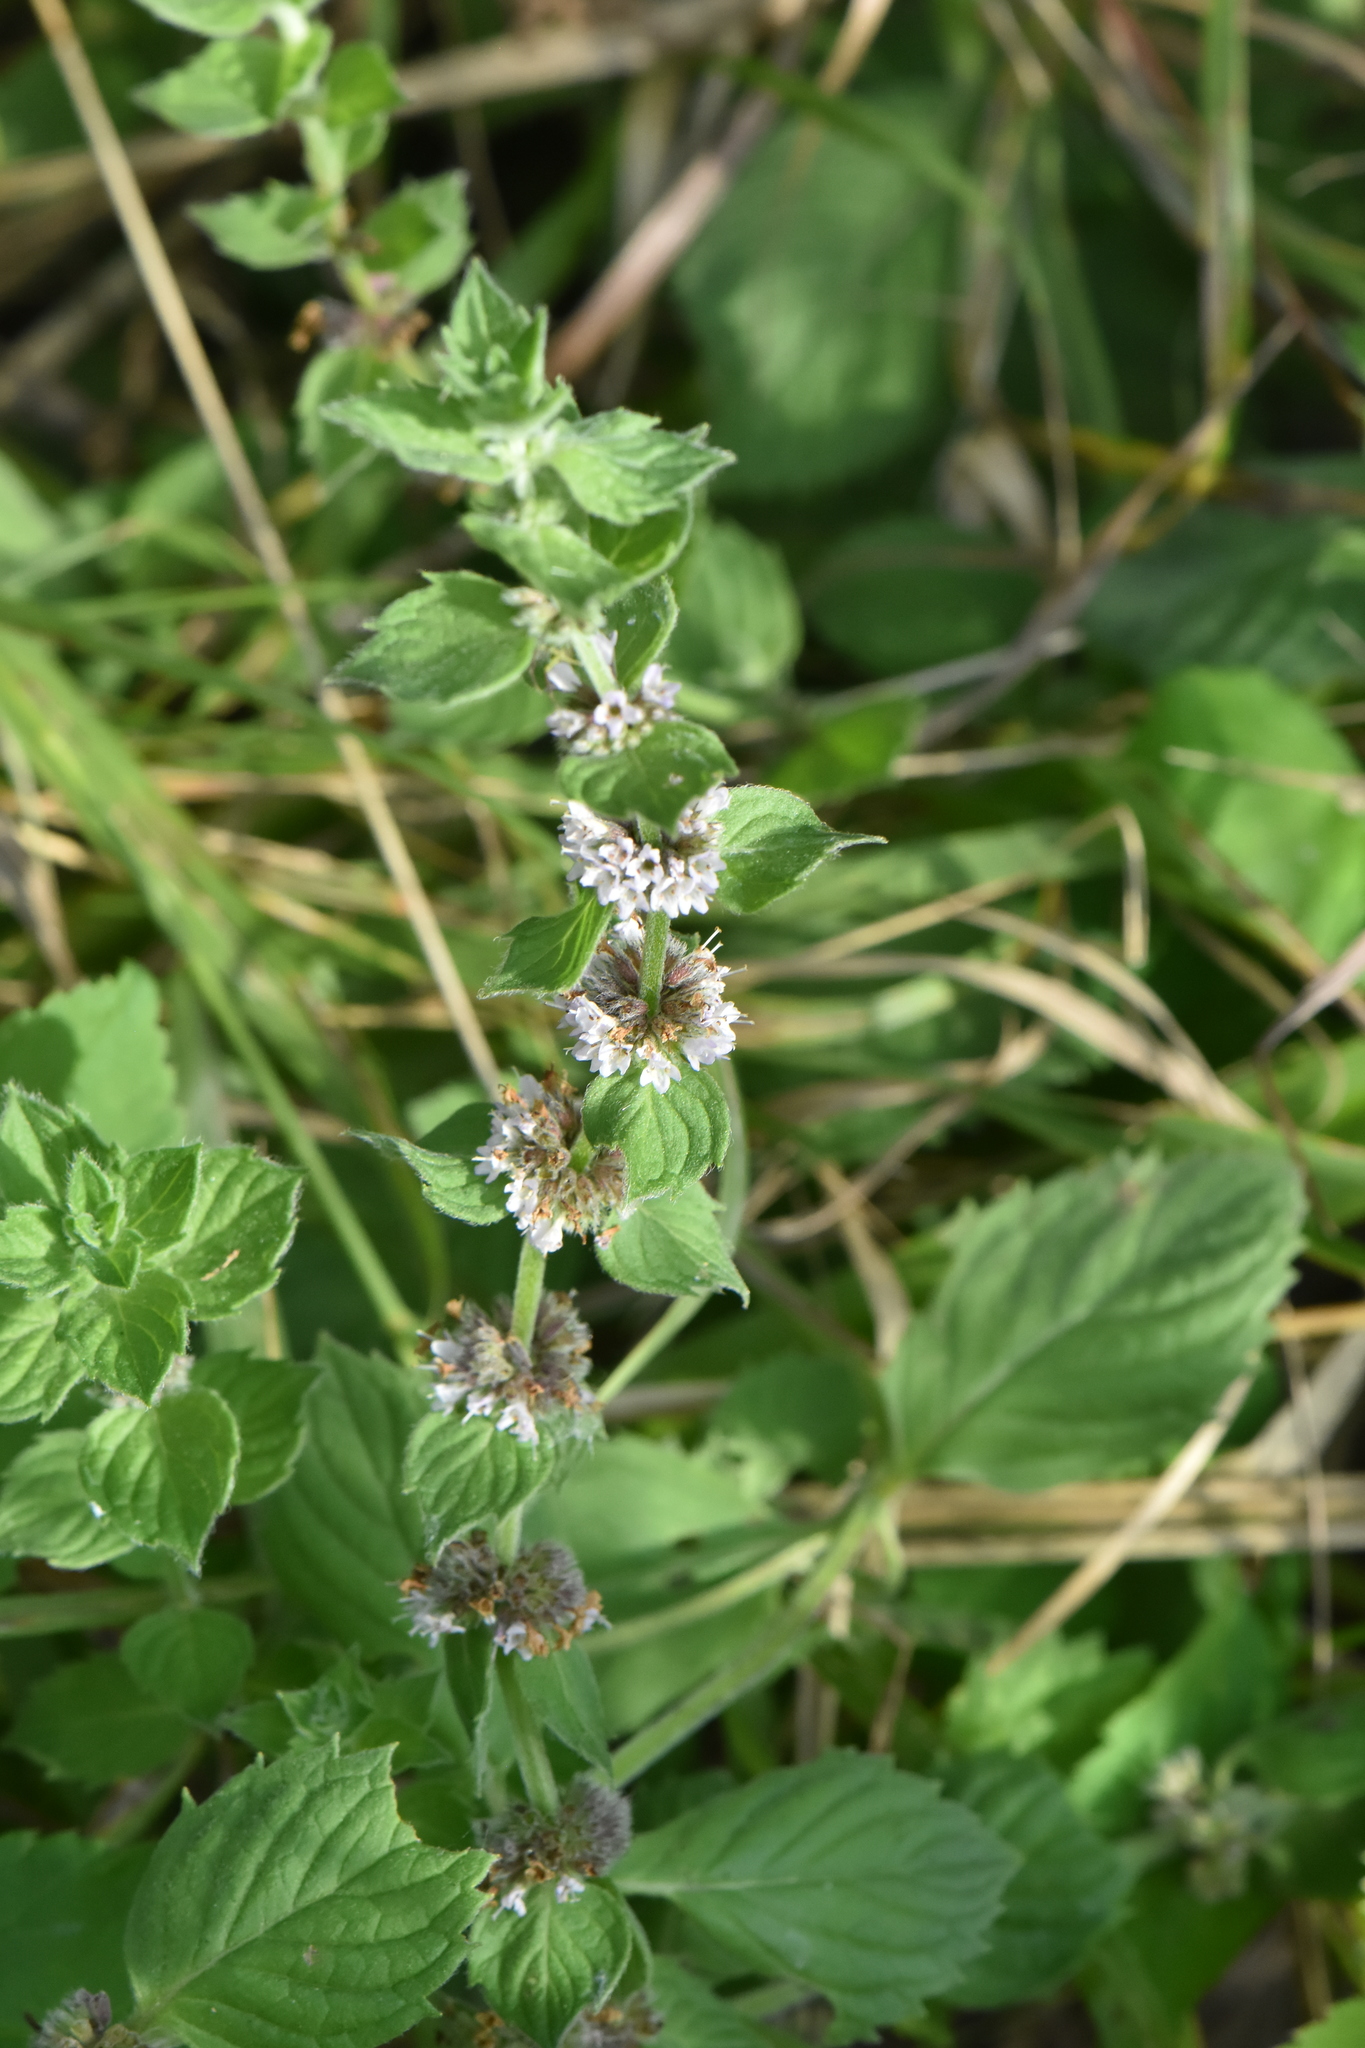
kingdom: Plantae
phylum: Tracheophyta
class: Magnoliopsida
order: Lamiales
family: Lamiaceae
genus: Mentha
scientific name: Mentha arvensis
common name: Corn mint
